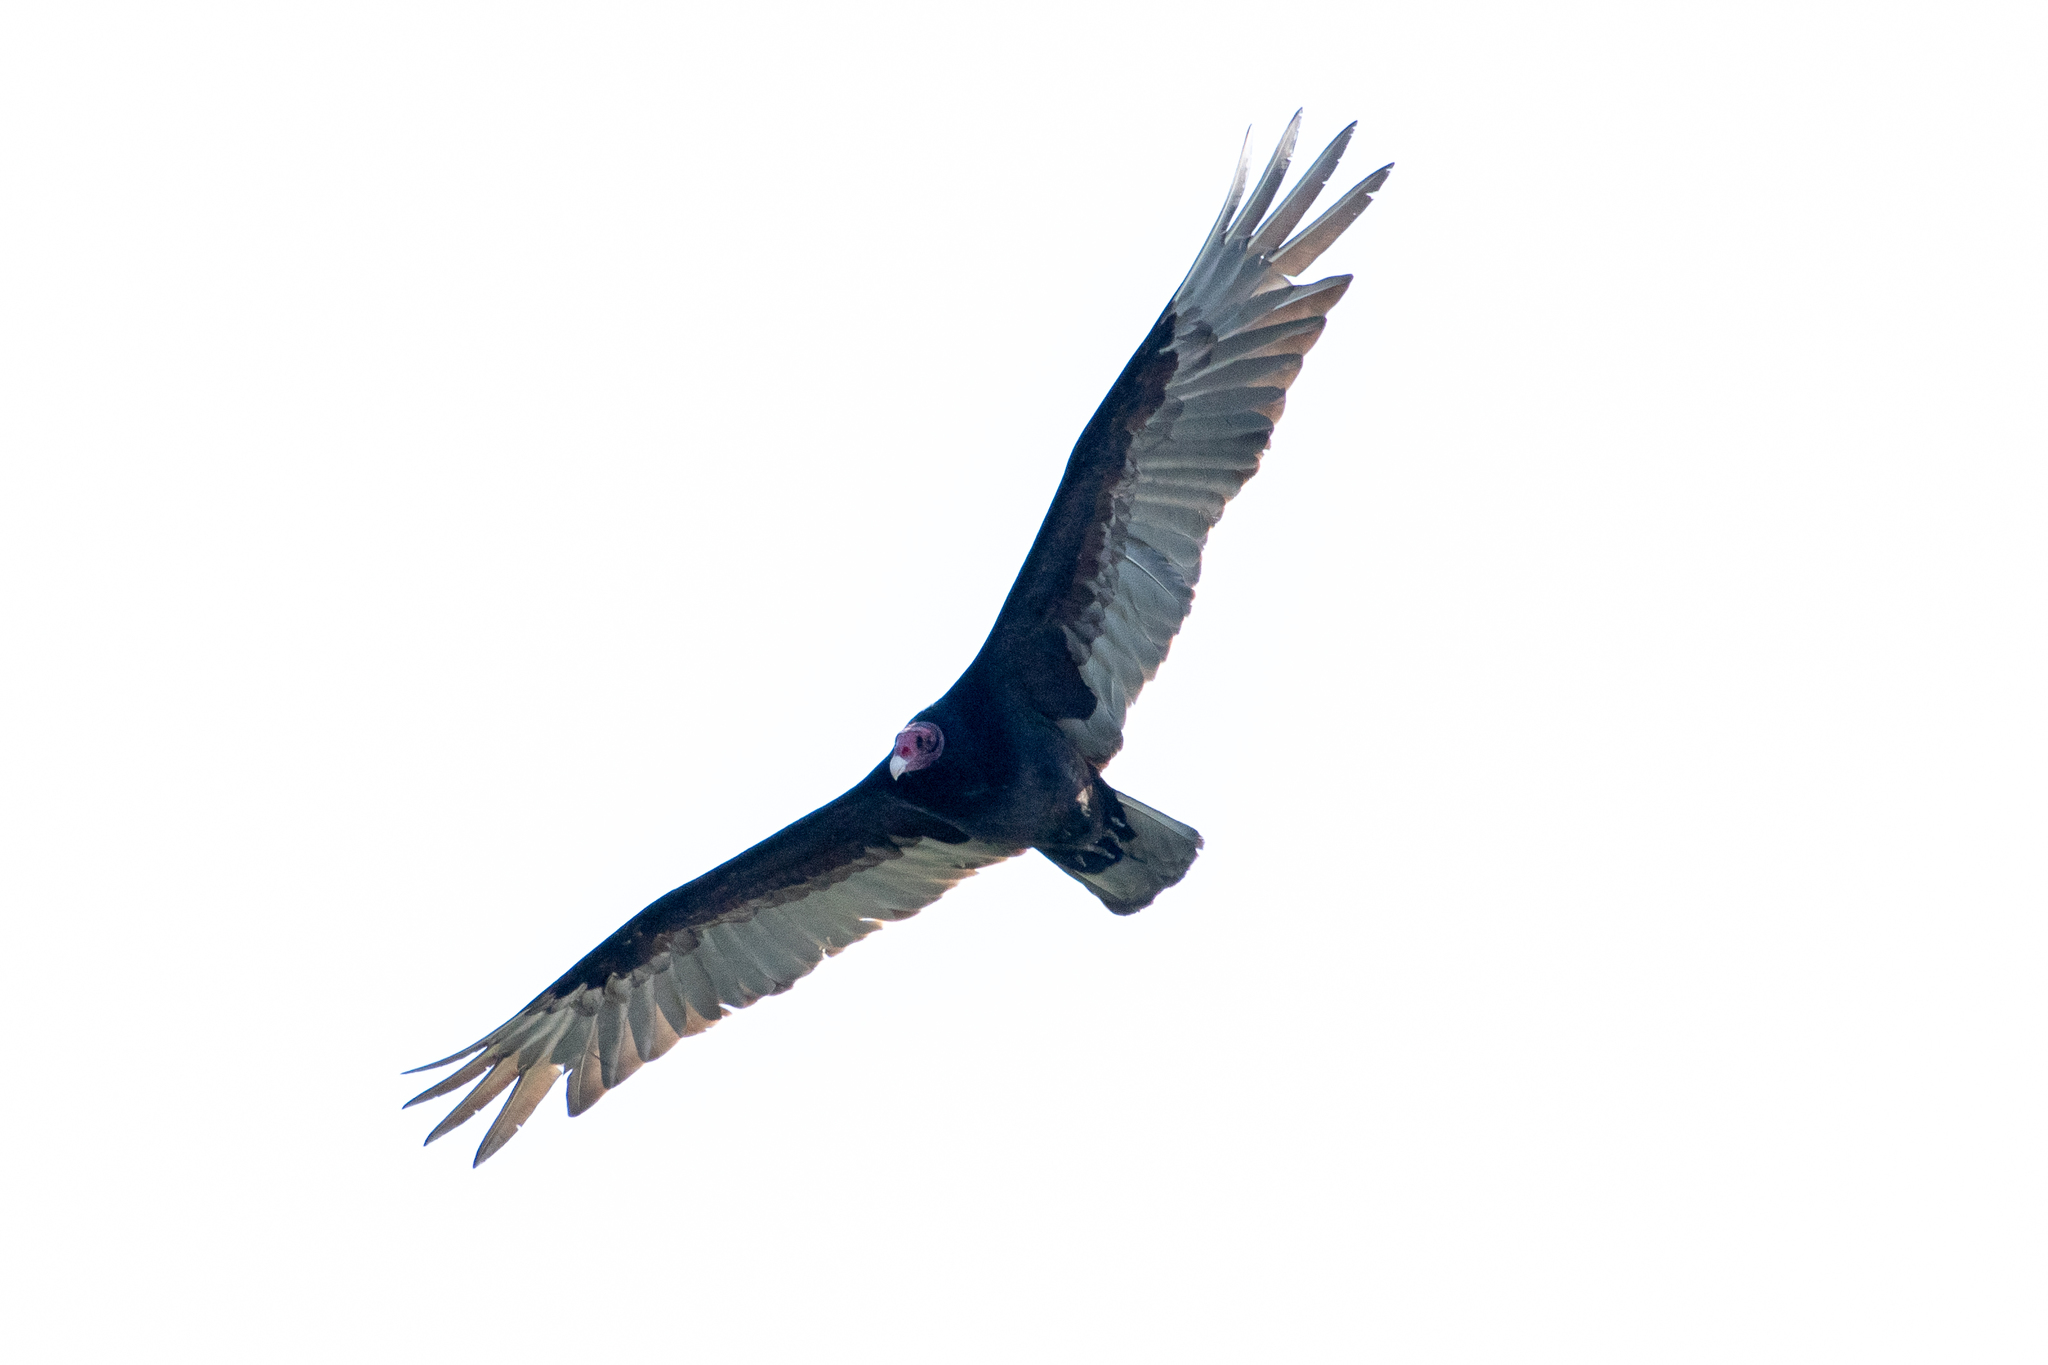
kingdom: Animalia
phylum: Chordata
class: Aves
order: Accipitriformes
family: Cathartidae
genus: Cathartes
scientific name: Cathartes aura
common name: Turkey vulture
